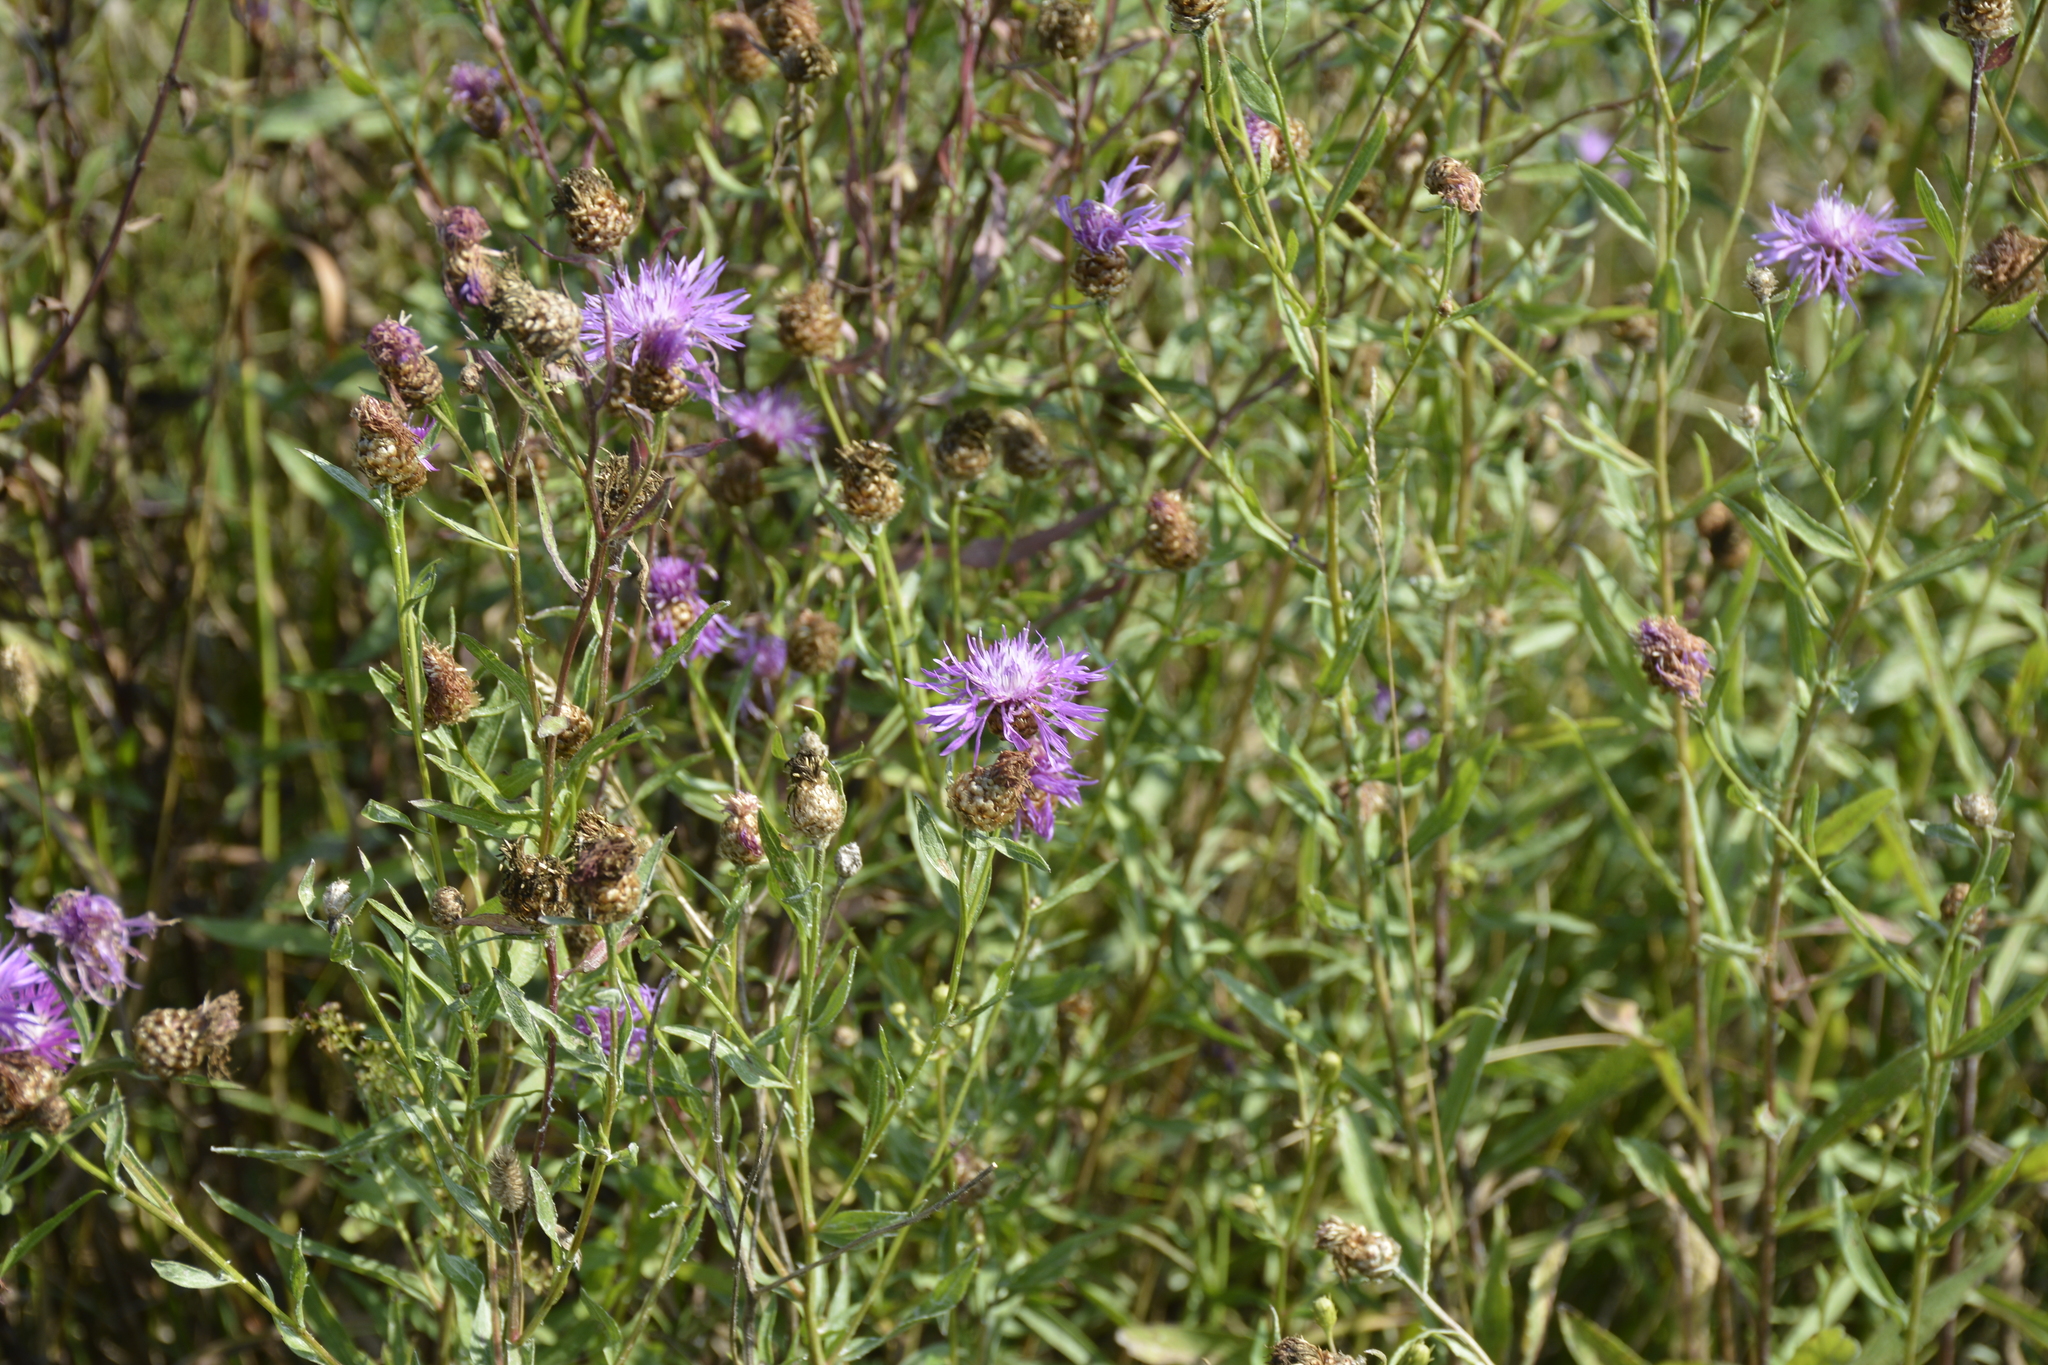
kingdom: Plantae
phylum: Tracheophyta
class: Magnoliopsida
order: Asterales
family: Asteraceae
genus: Centaurea
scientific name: Centaurea jacea
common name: Brown knapweed
